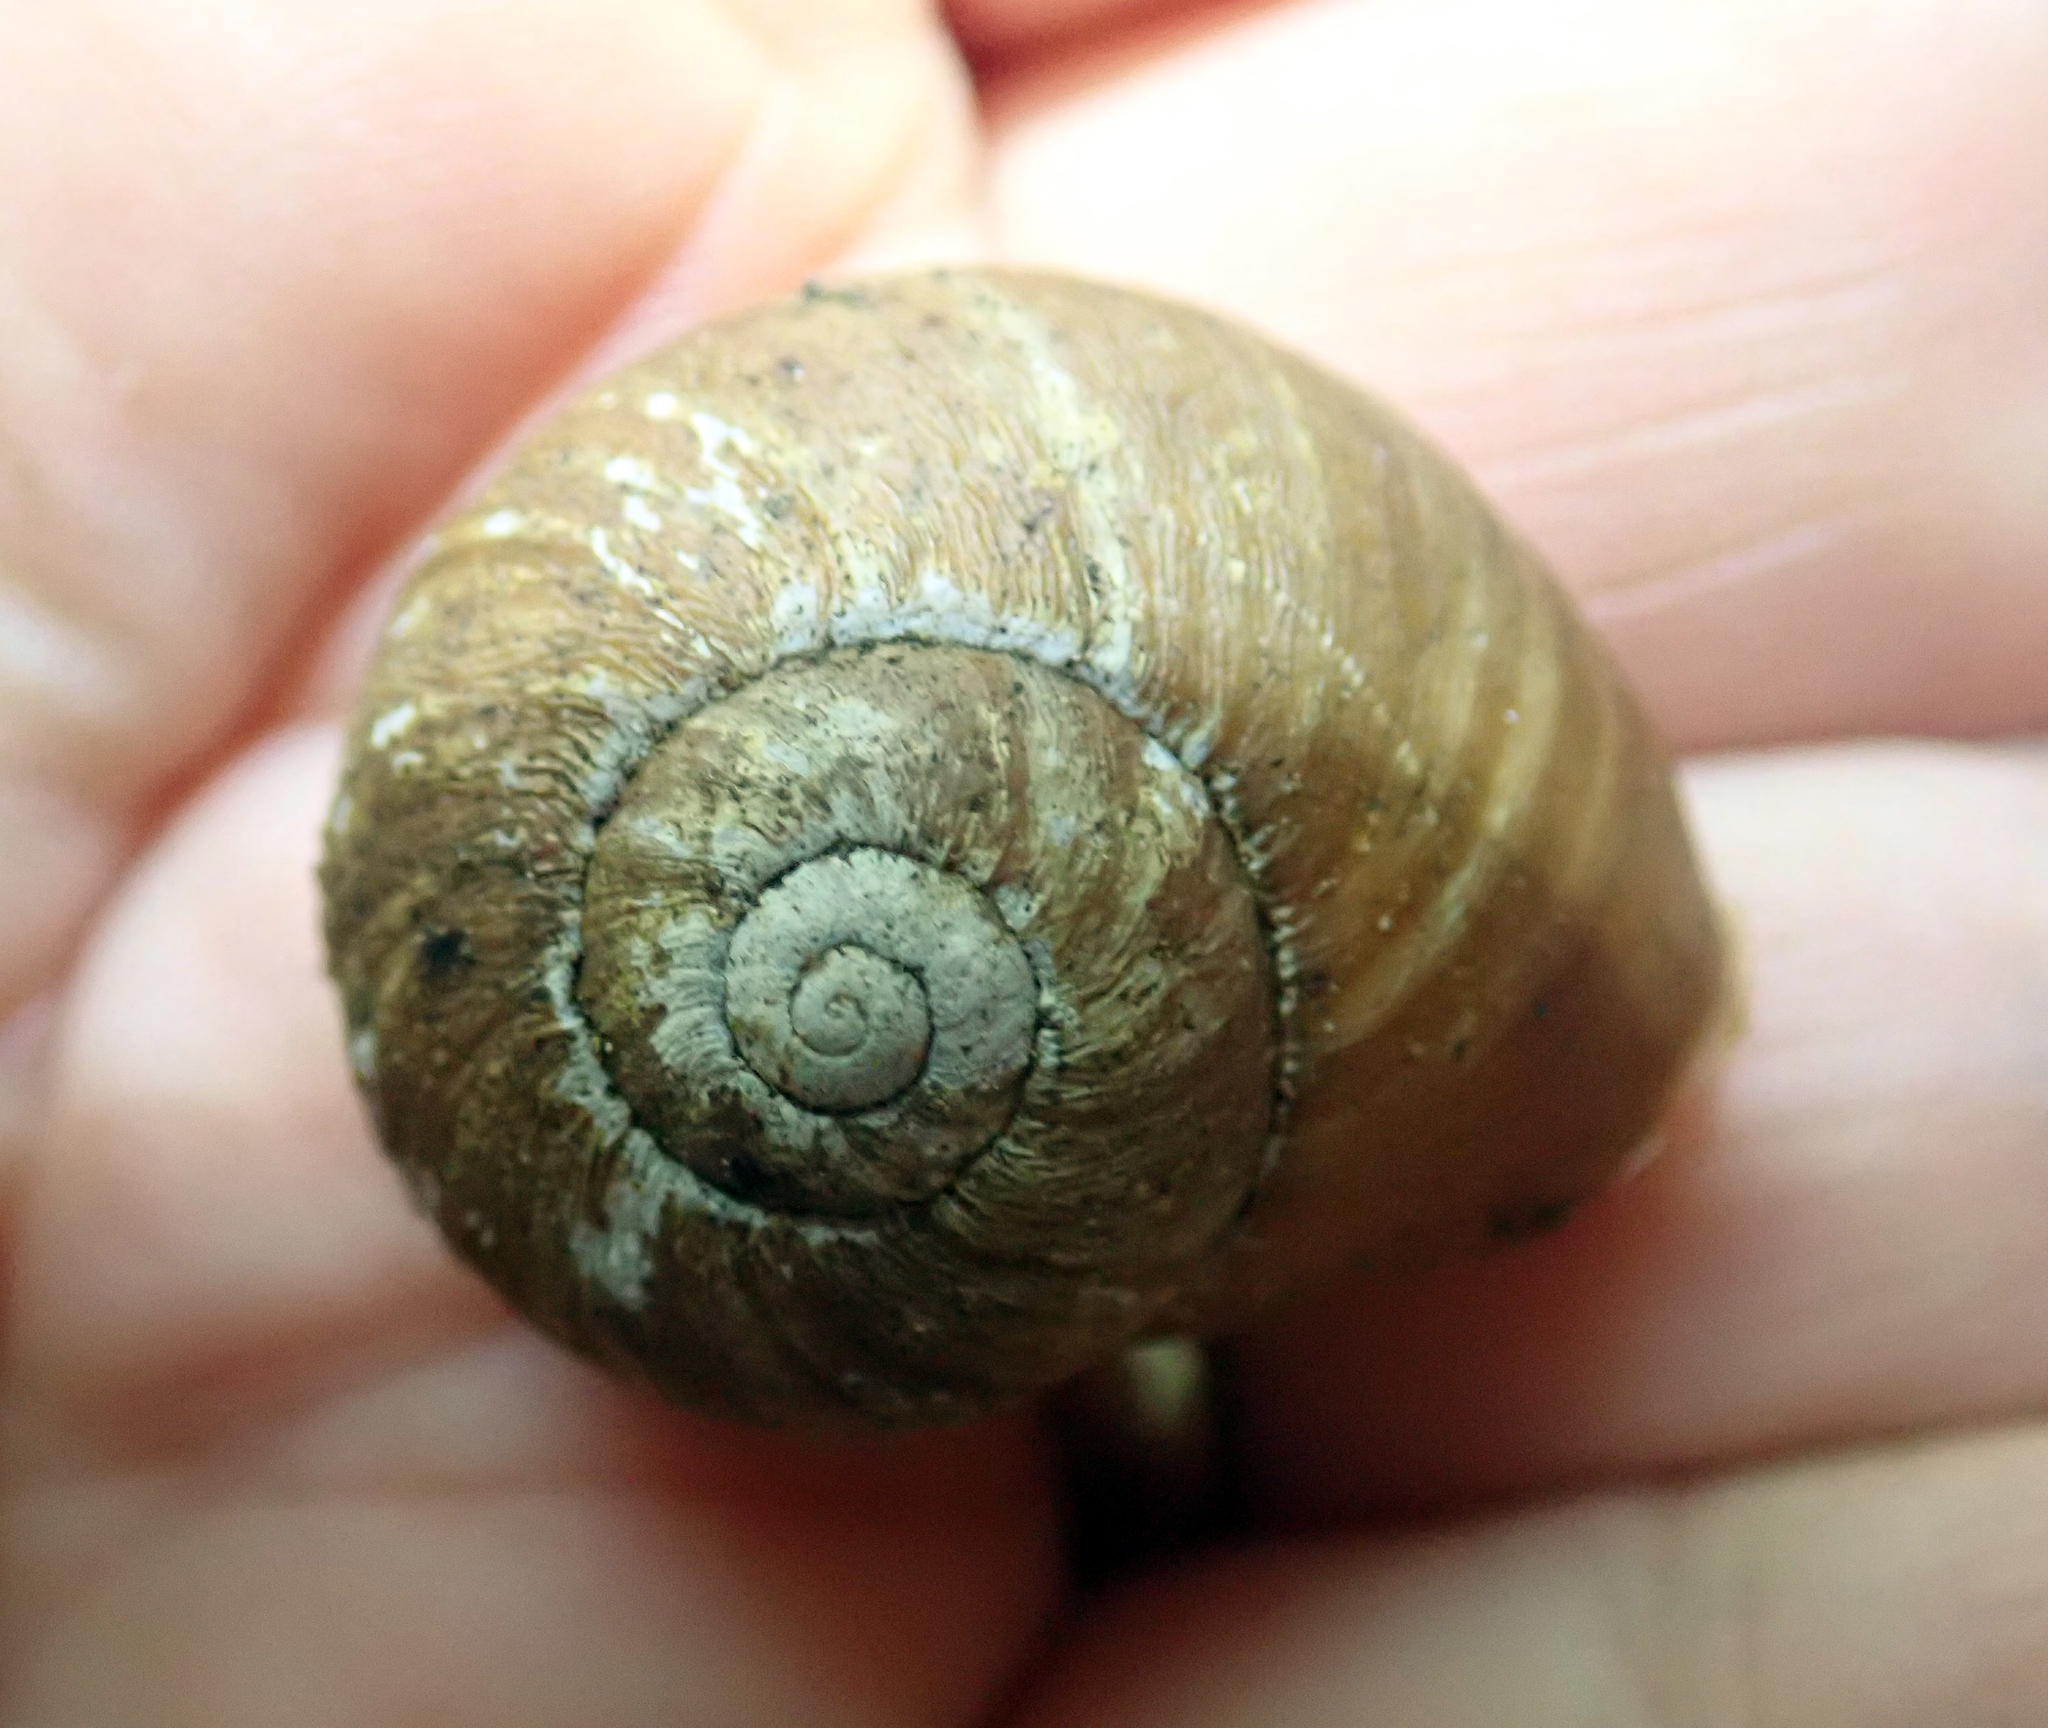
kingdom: Animalia
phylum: Mollusca
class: Gastropoda
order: Stylommatophora
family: Rhytididae
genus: Rhytida
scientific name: Rhytida greenwoodi
